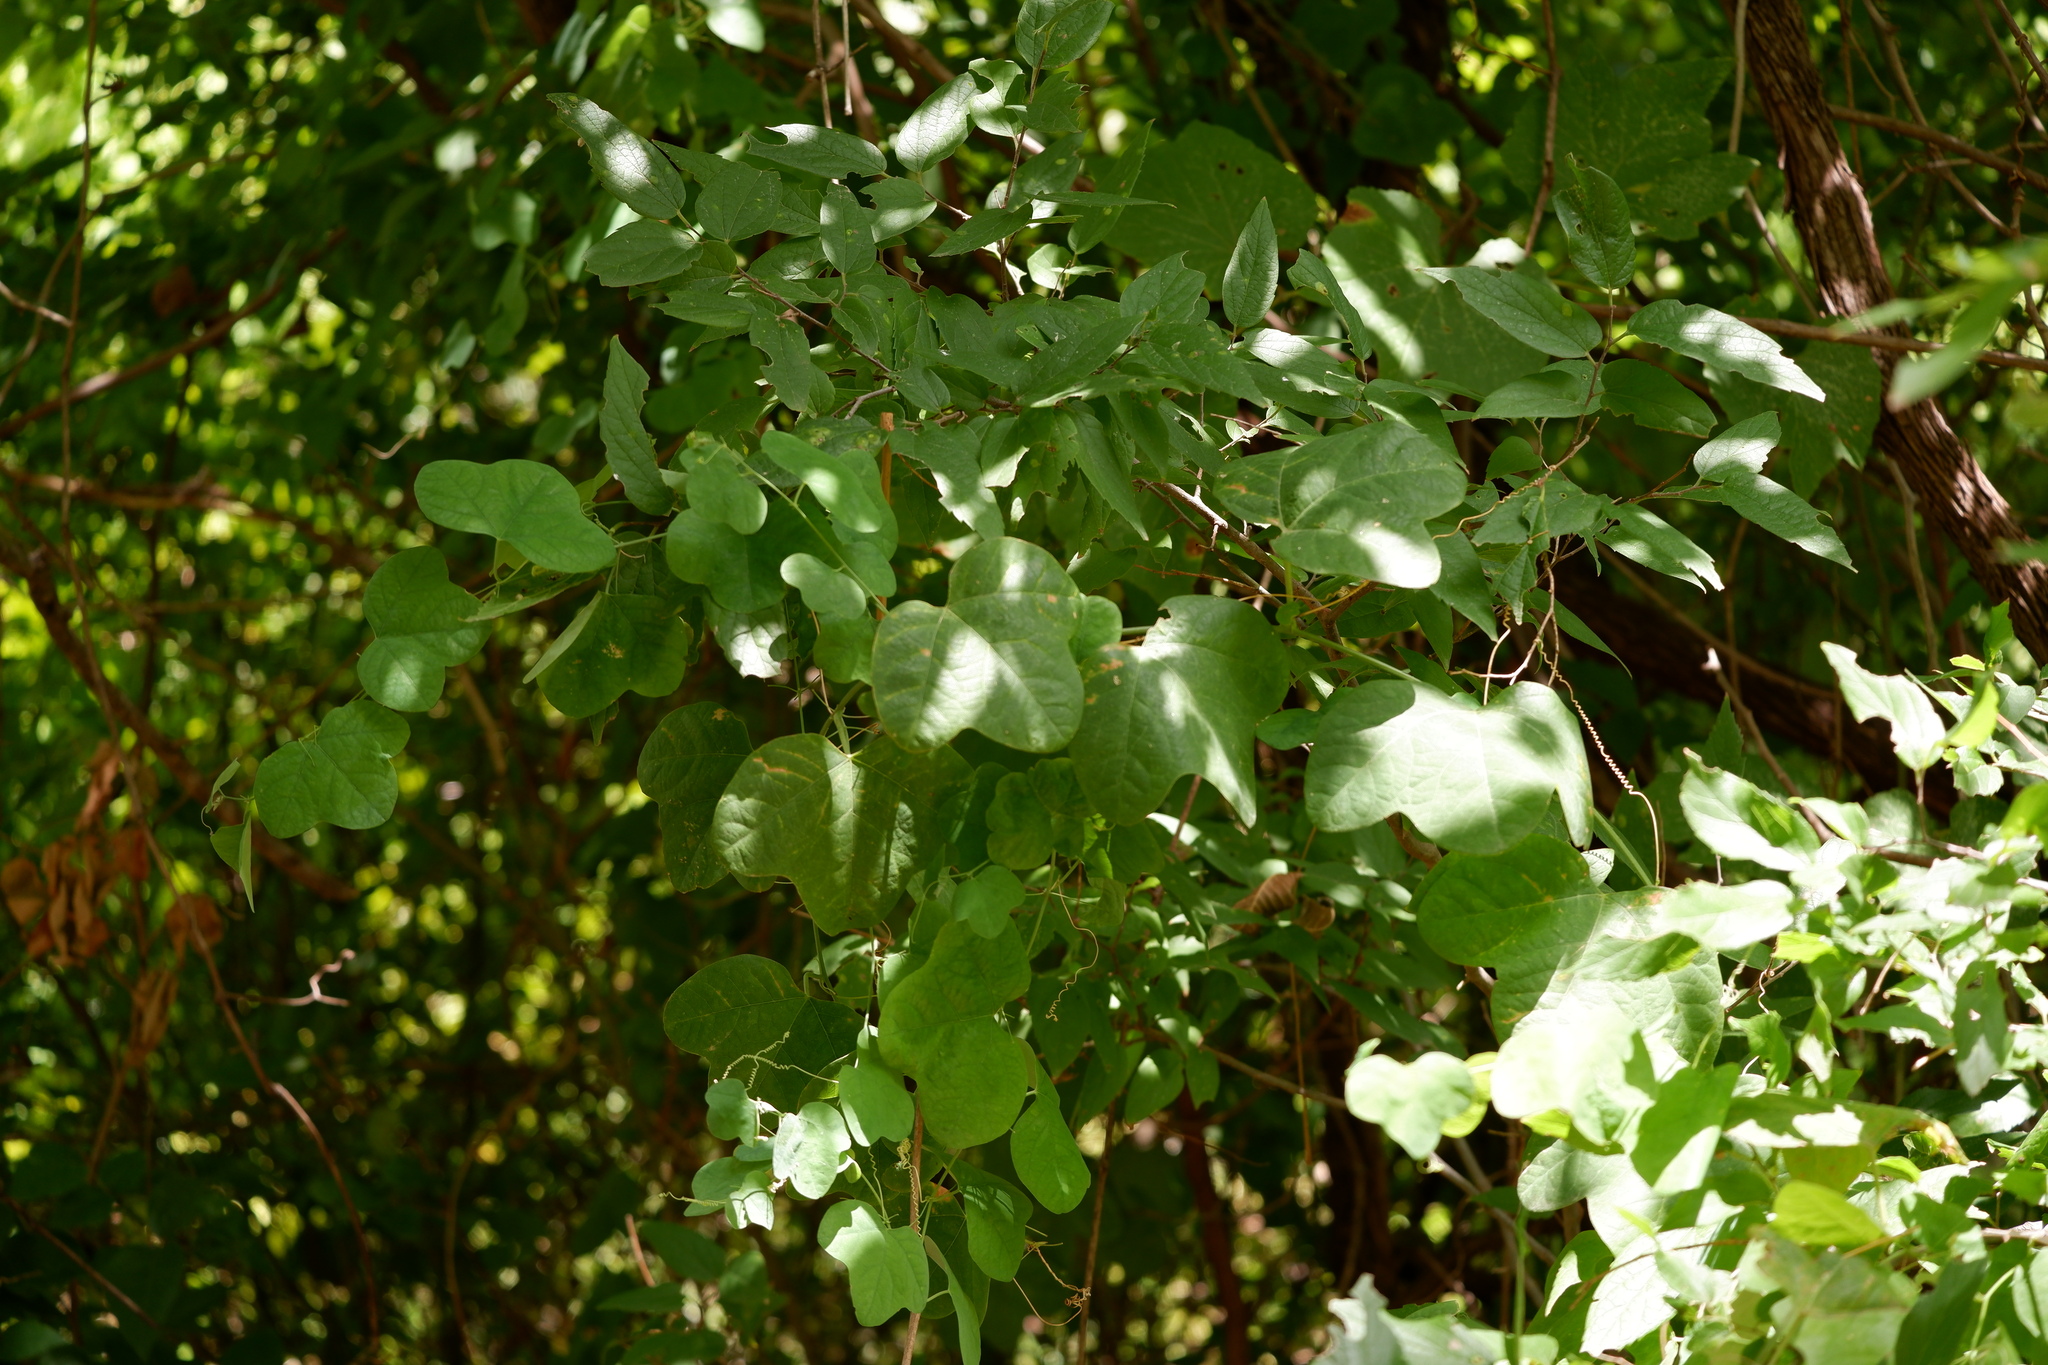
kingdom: Plantae
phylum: Tracheophyta
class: Magnoliopsida
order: Malpighiales
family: Passifloraceae
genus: Passiflora
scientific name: Passiflora lutea
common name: Yellow passionflower
